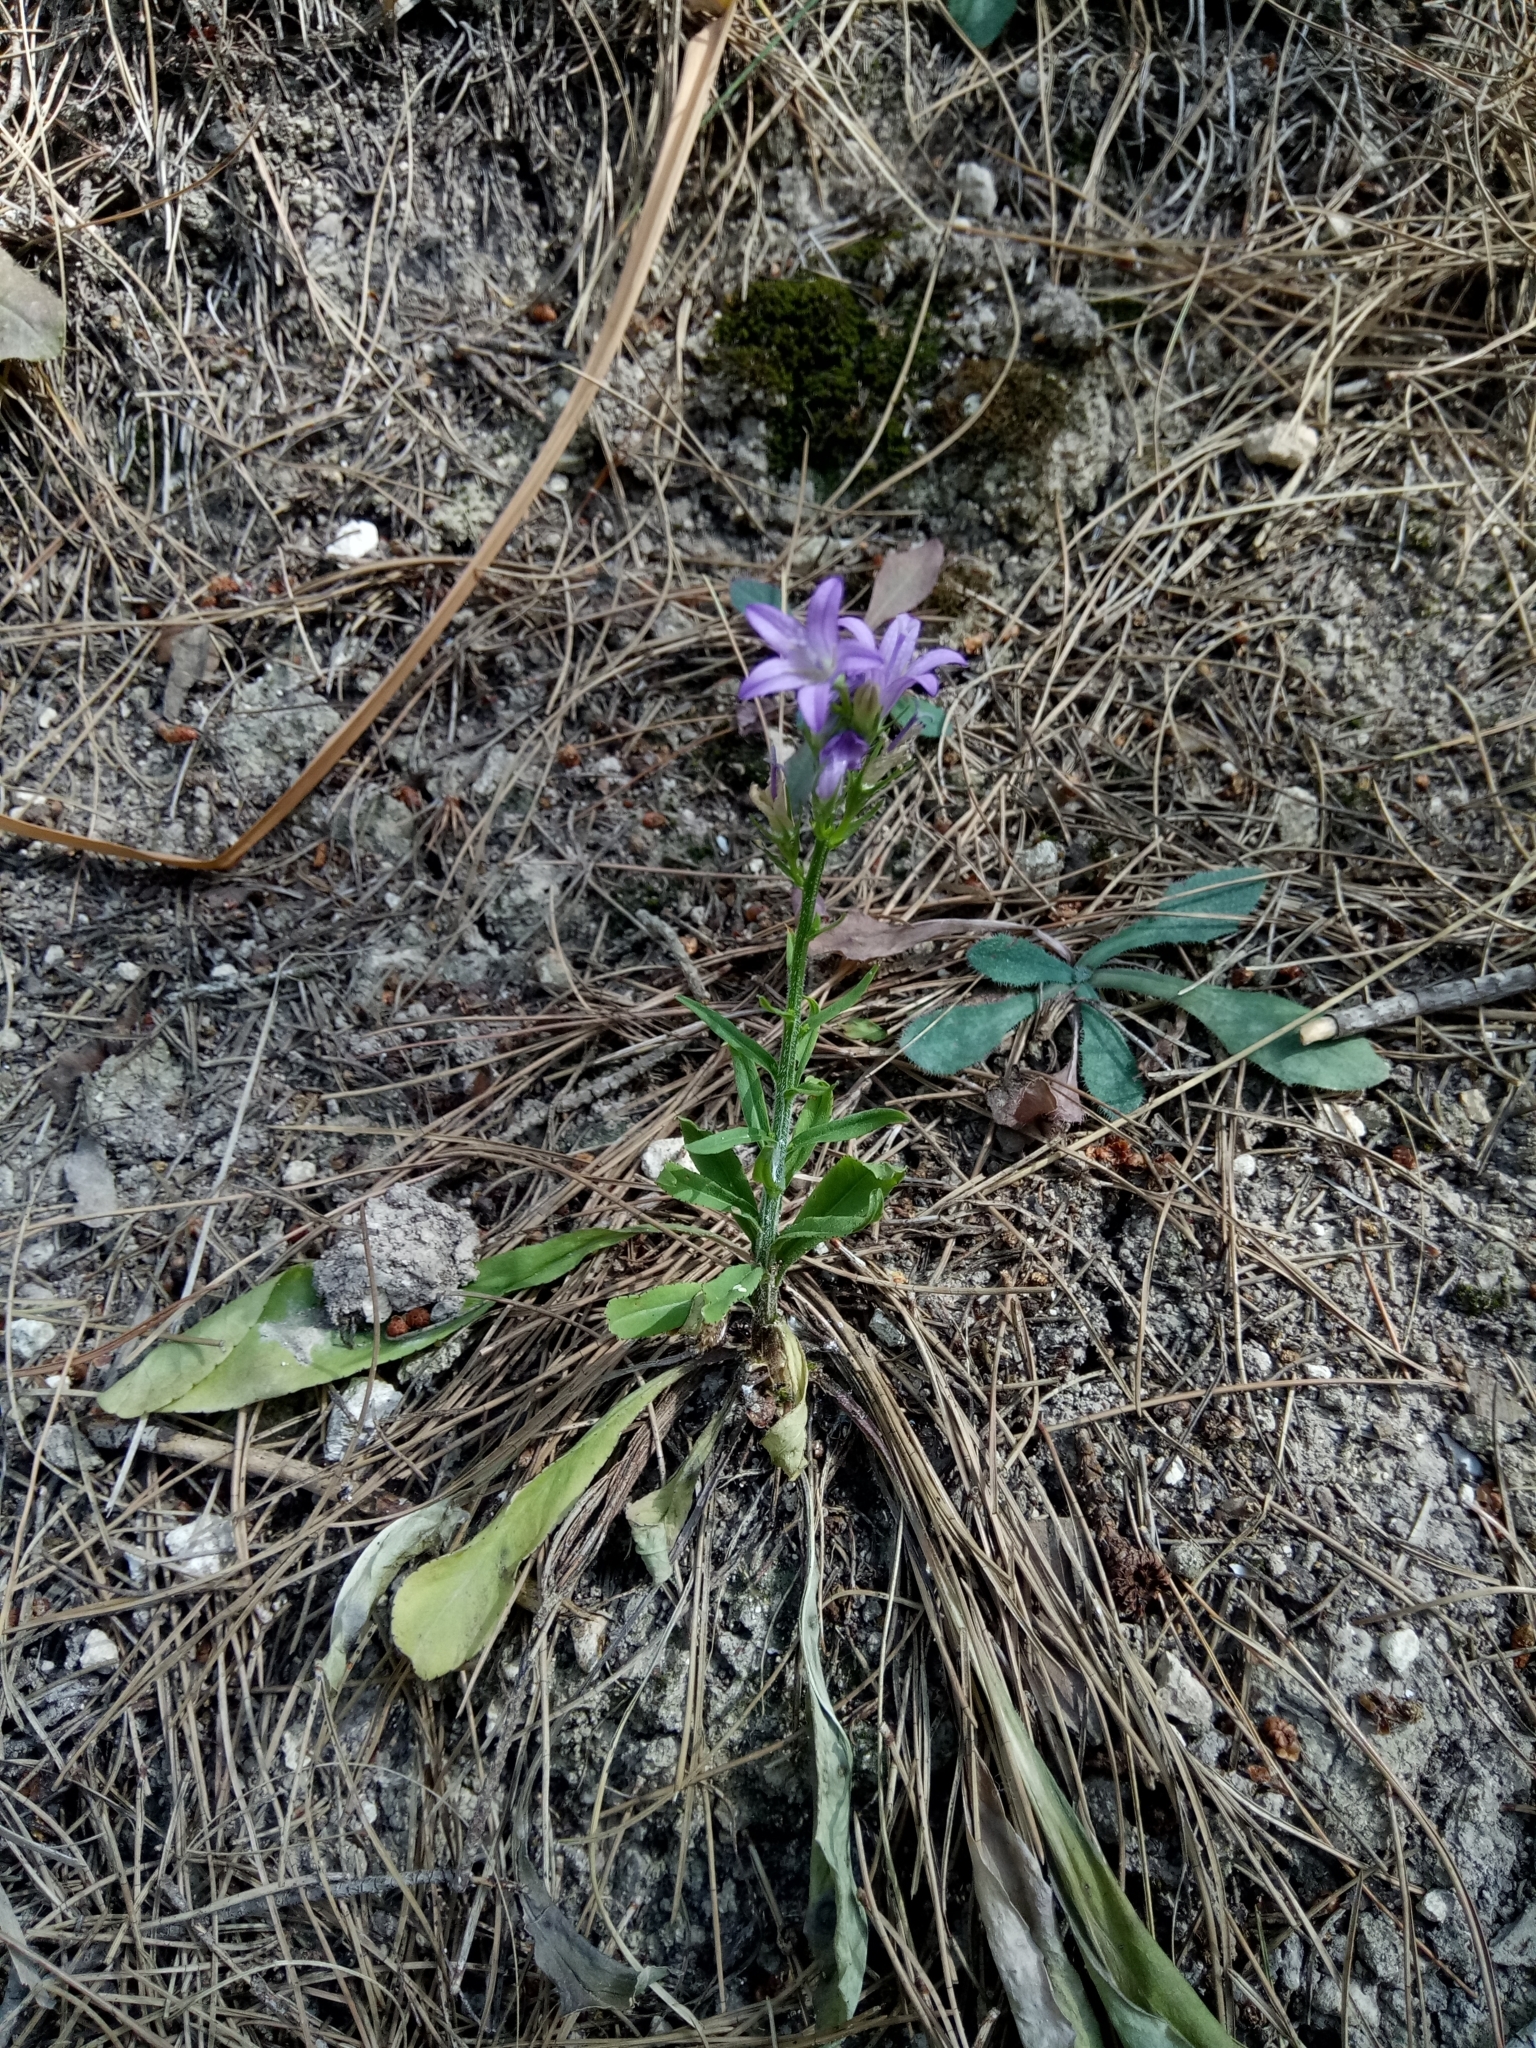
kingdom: Plantae
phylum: Tracheophyta
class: Magnoliopsida
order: Asterales
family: Campanulaceae
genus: Campanula
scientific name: Campanula rapunculus
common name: Rampion bellflower
